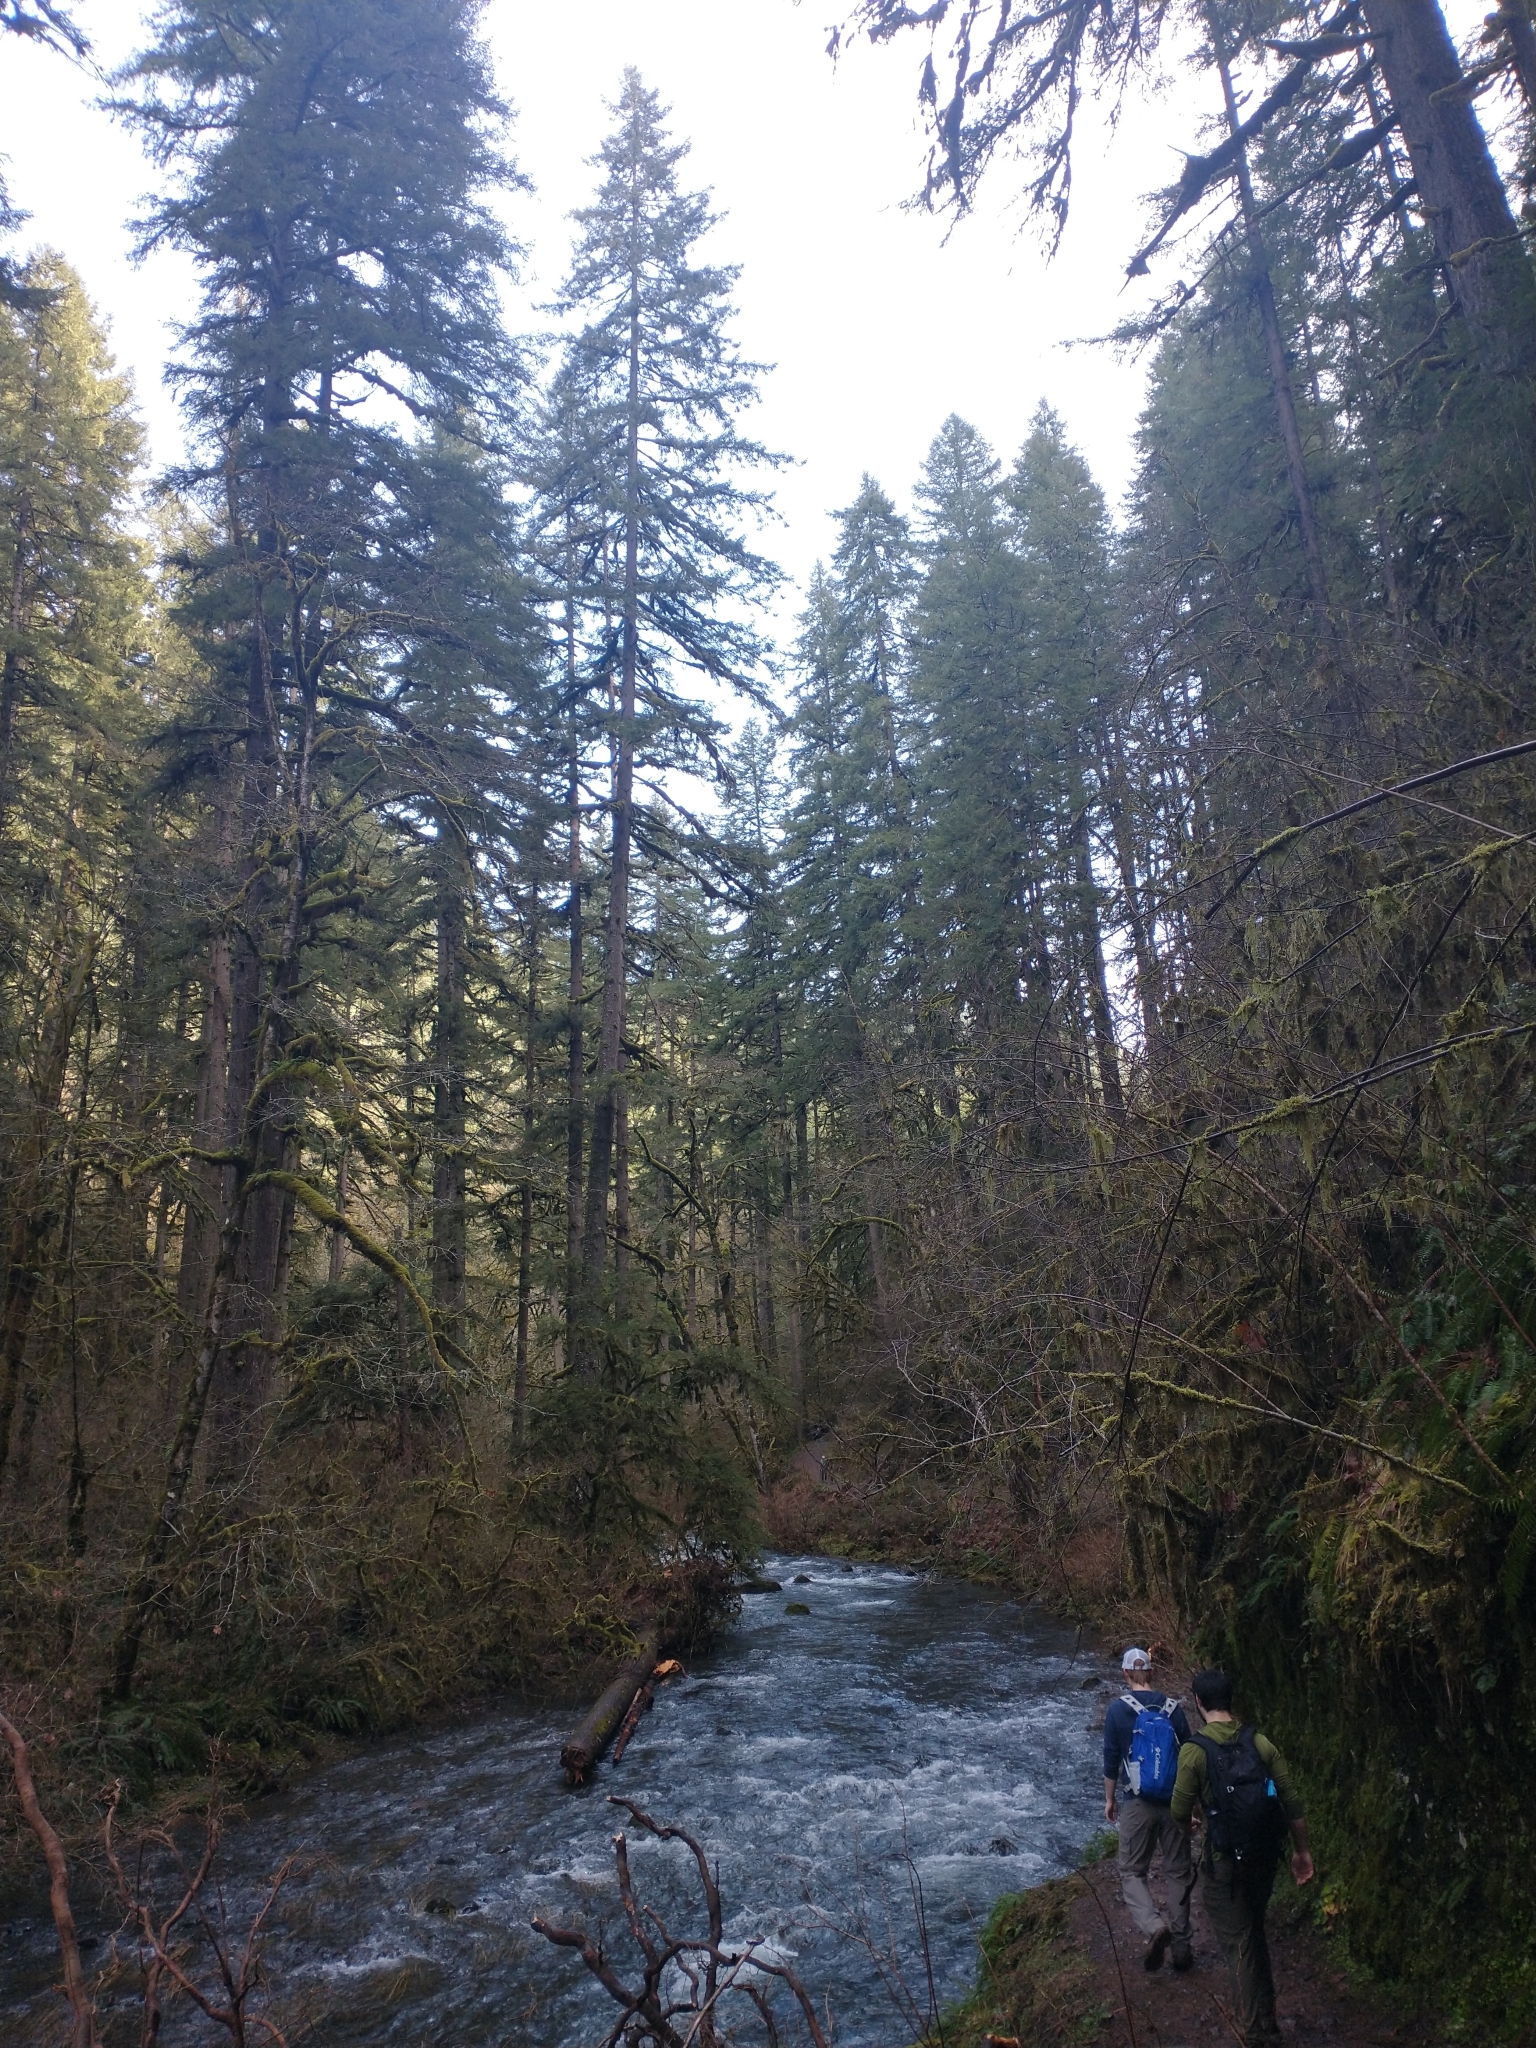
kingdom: Plantae
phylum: Tracheophyta
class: Pinopsida
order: Pinales
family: Pinaceae
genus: Pseudotsuga
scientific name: Pseudotsuga menziesii
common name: Douglas fir
